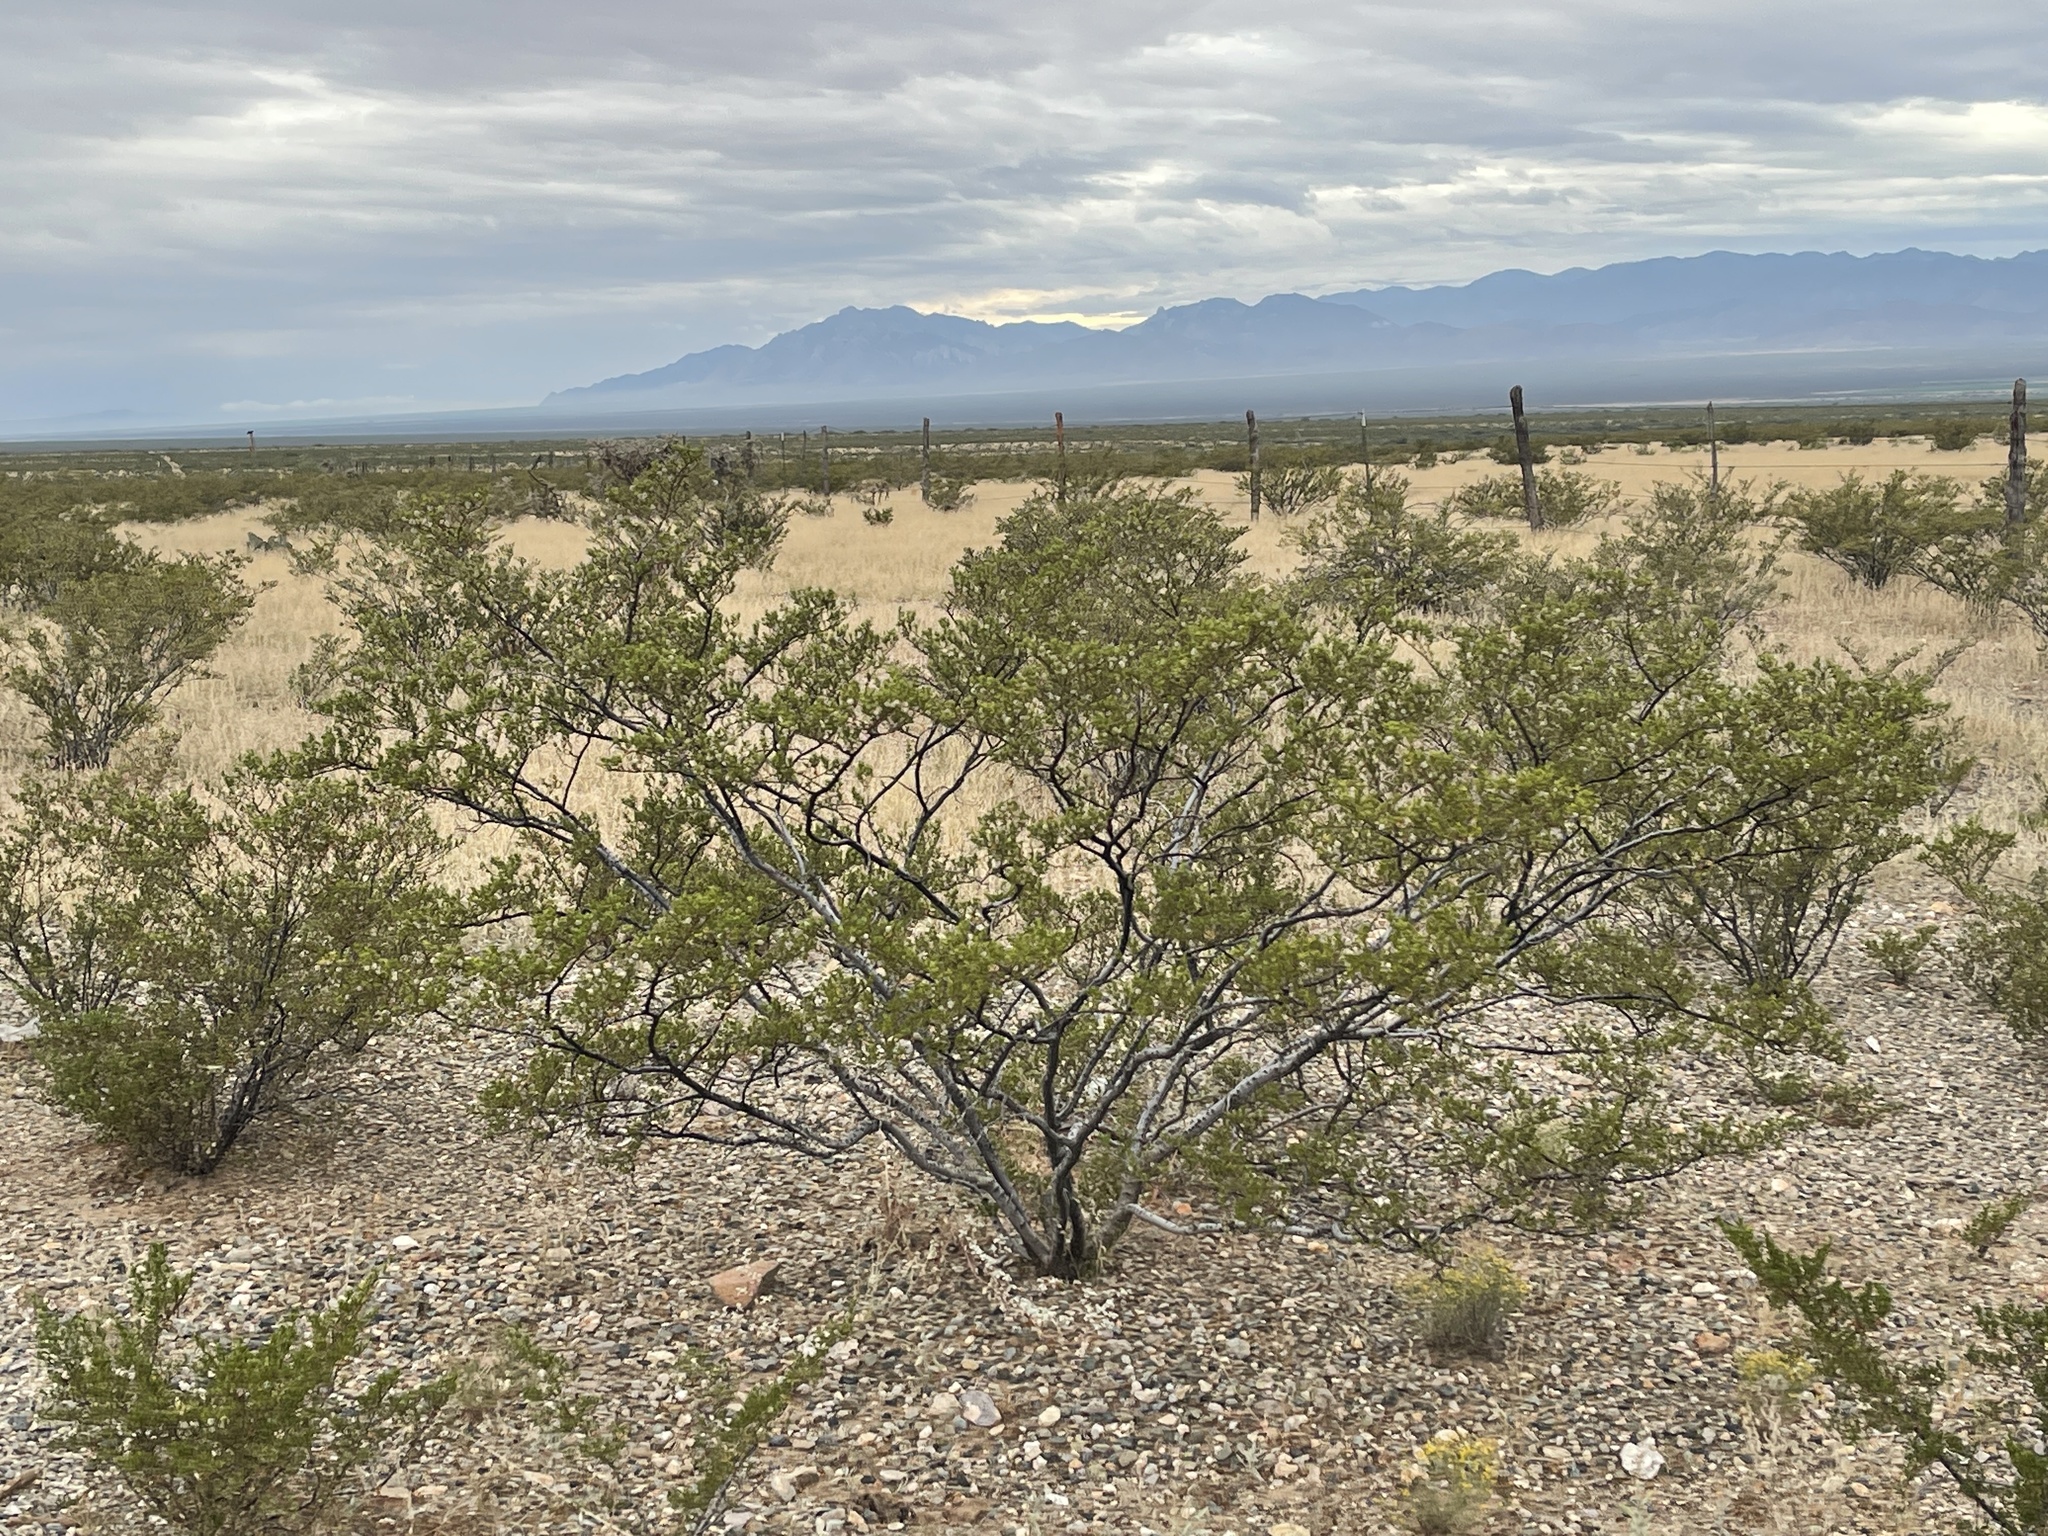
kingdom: Plantae
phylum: Tracheophyta
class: Magnoliopsida
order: Zygophyllales
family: Zygophyllaceae
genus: Larrea
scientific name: Larrea tridentata
